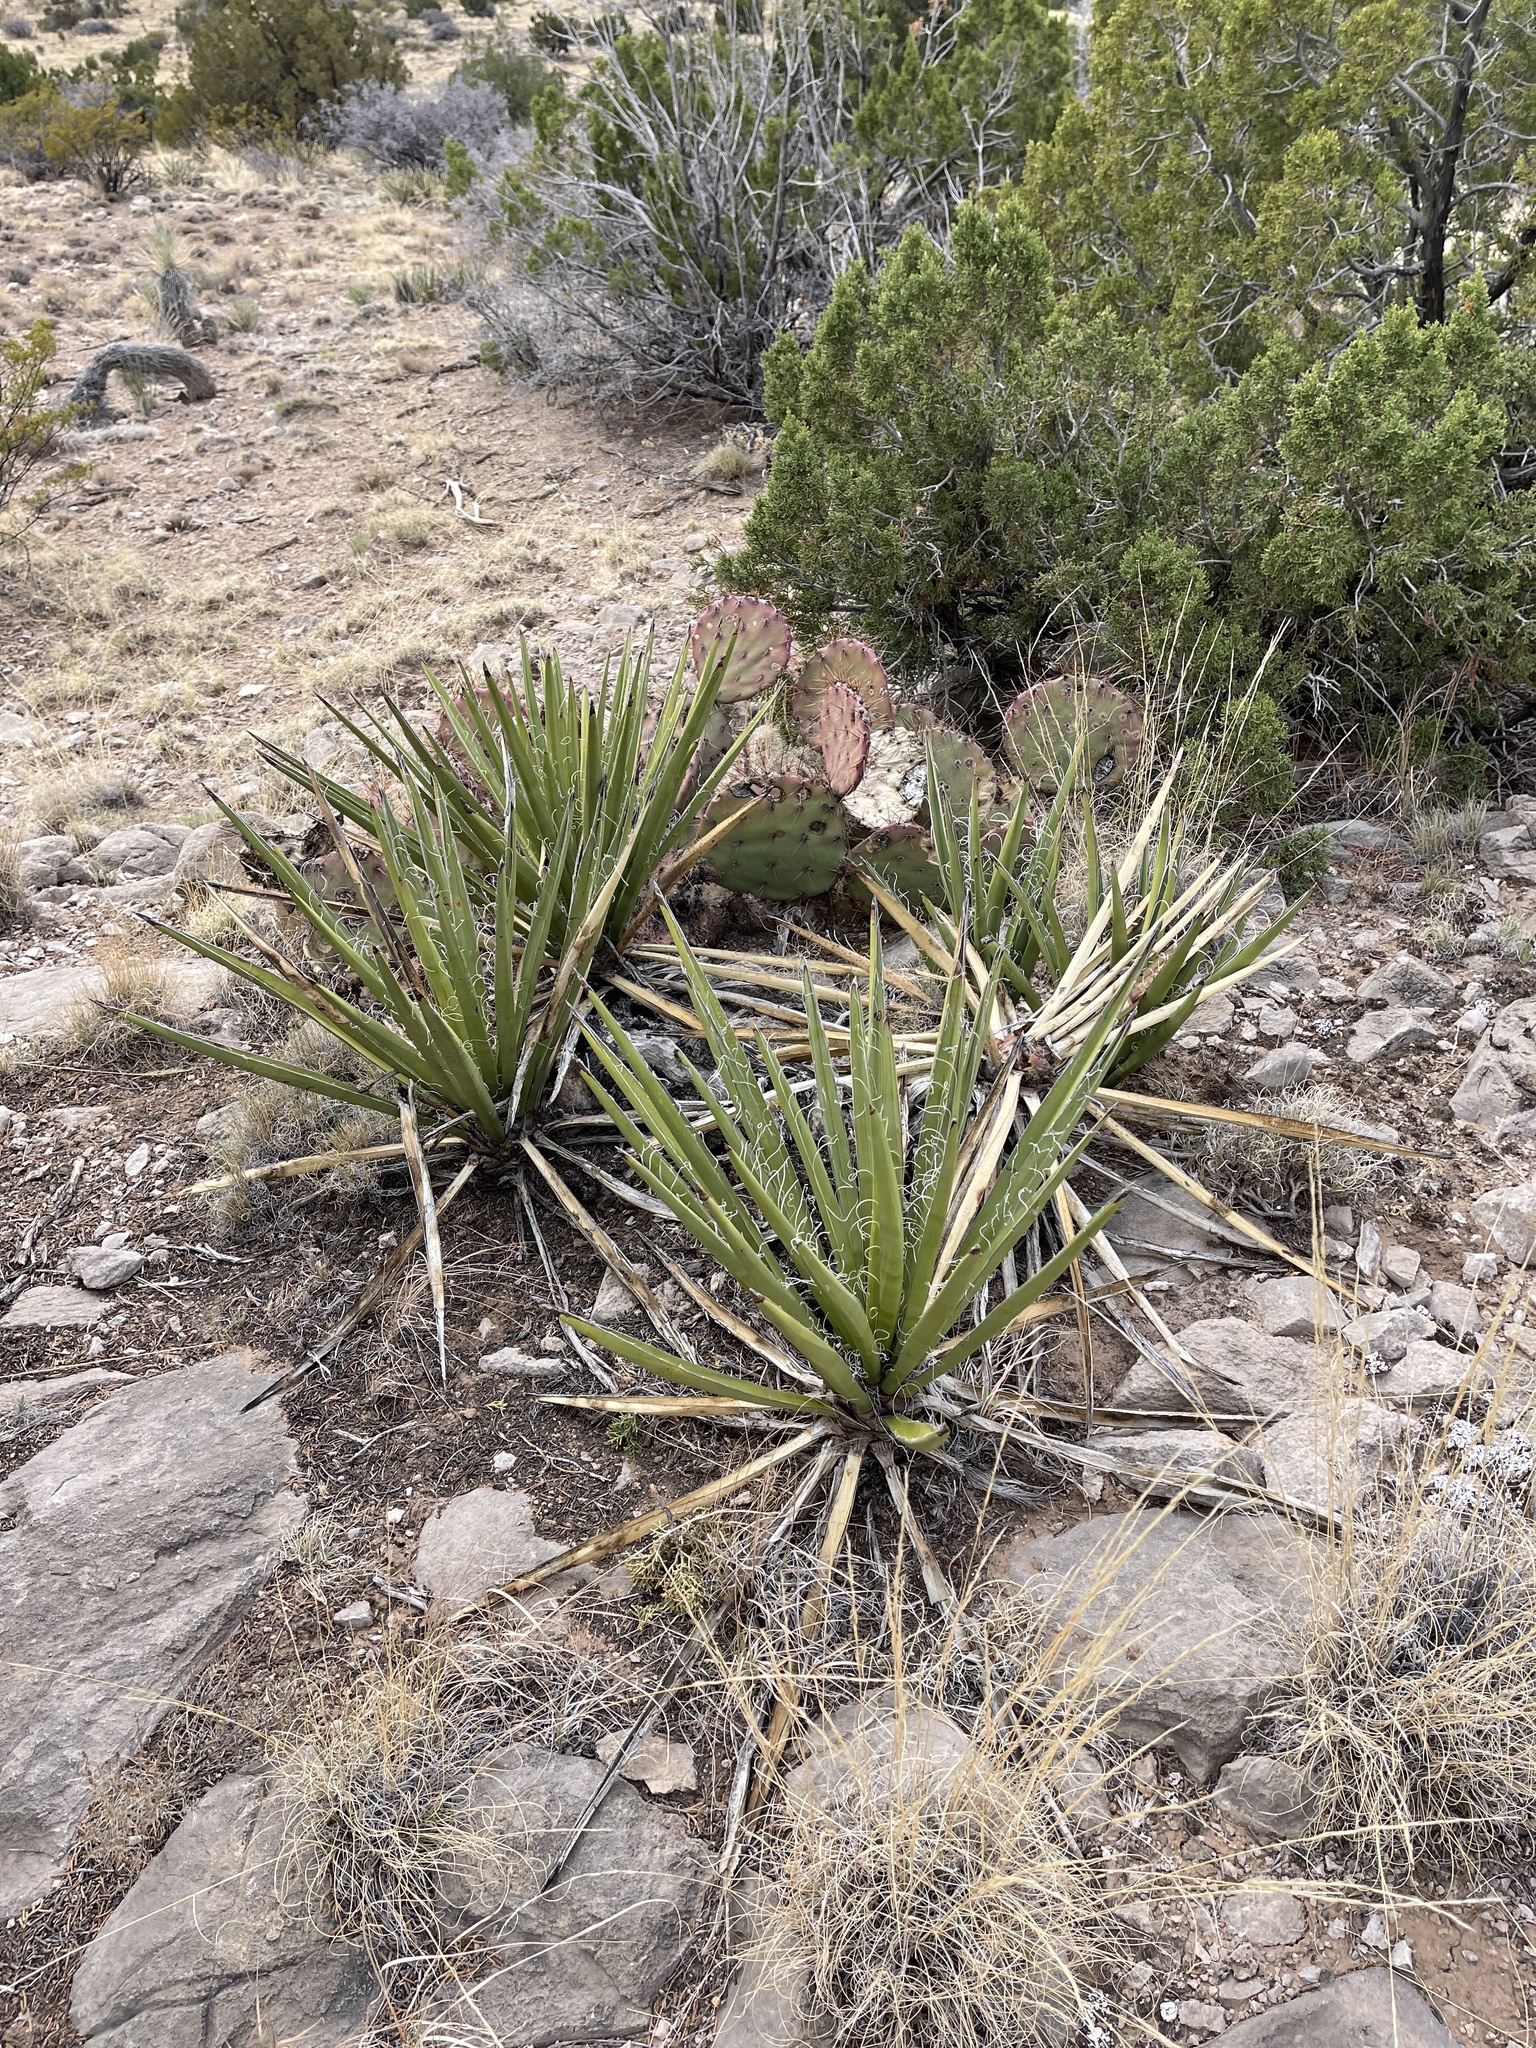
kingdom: Plantae
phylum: Tracheophyta
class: Liliopsida
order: Asparagales
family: Asparagaceae
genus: Yucca
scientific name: Yucca baccata
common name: Banana yucca
